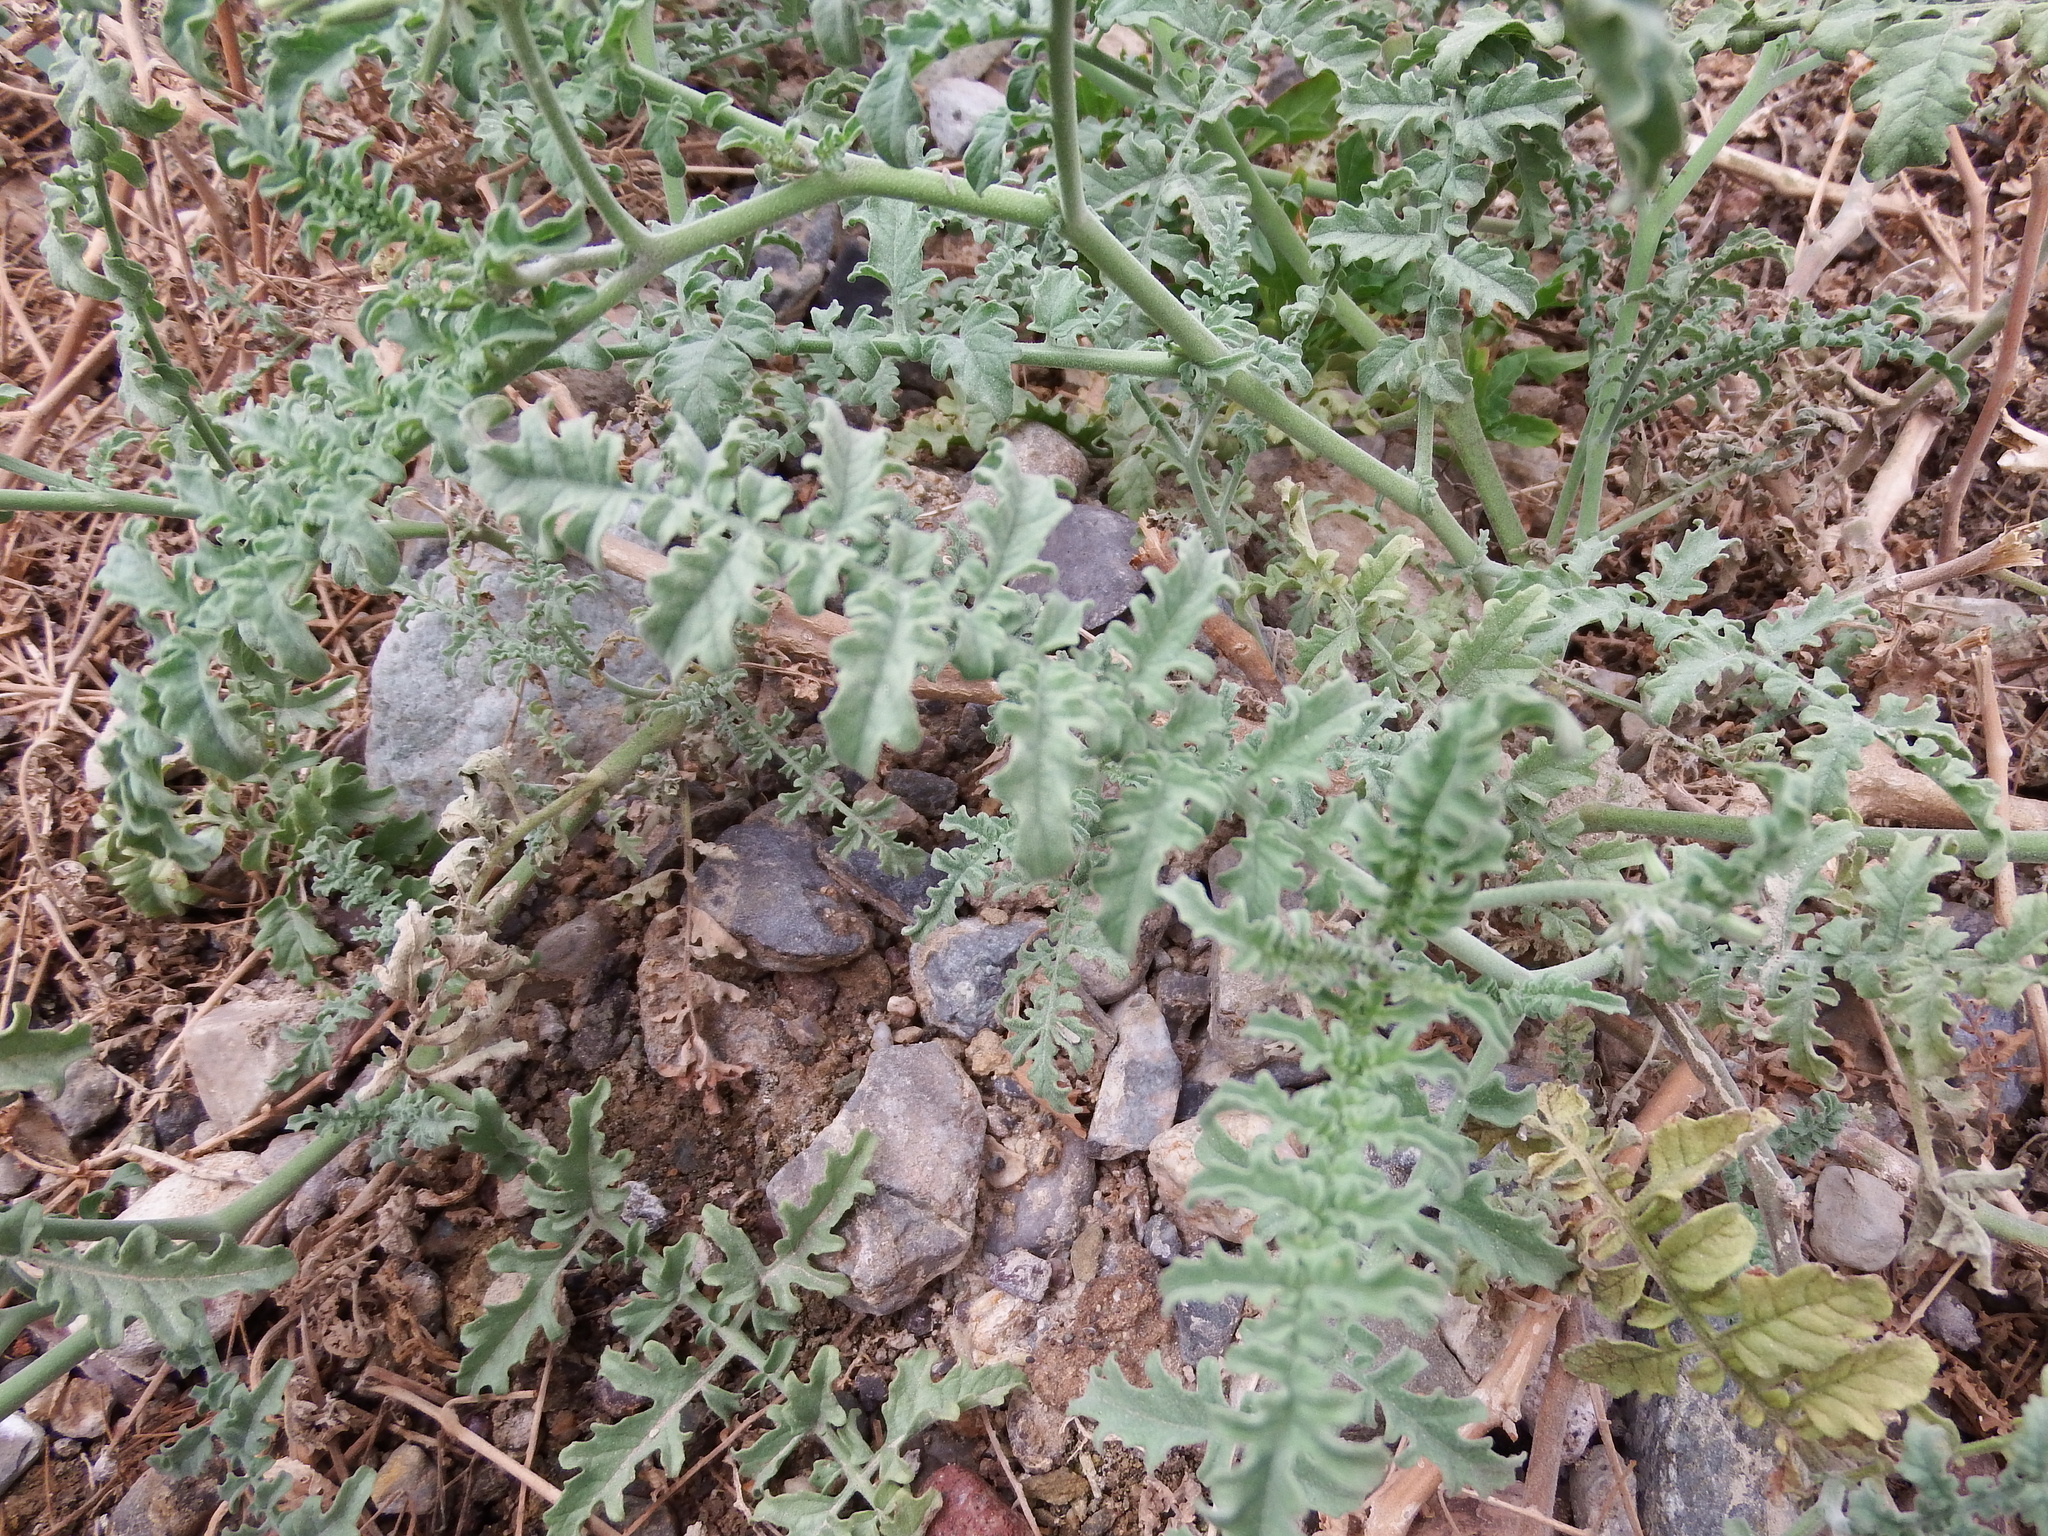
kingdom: Plantae
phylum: Tracheophyta
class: Magnoliopsida
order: Solanales
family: Solanaceae
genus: Solanum
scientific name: Solanum chilense
